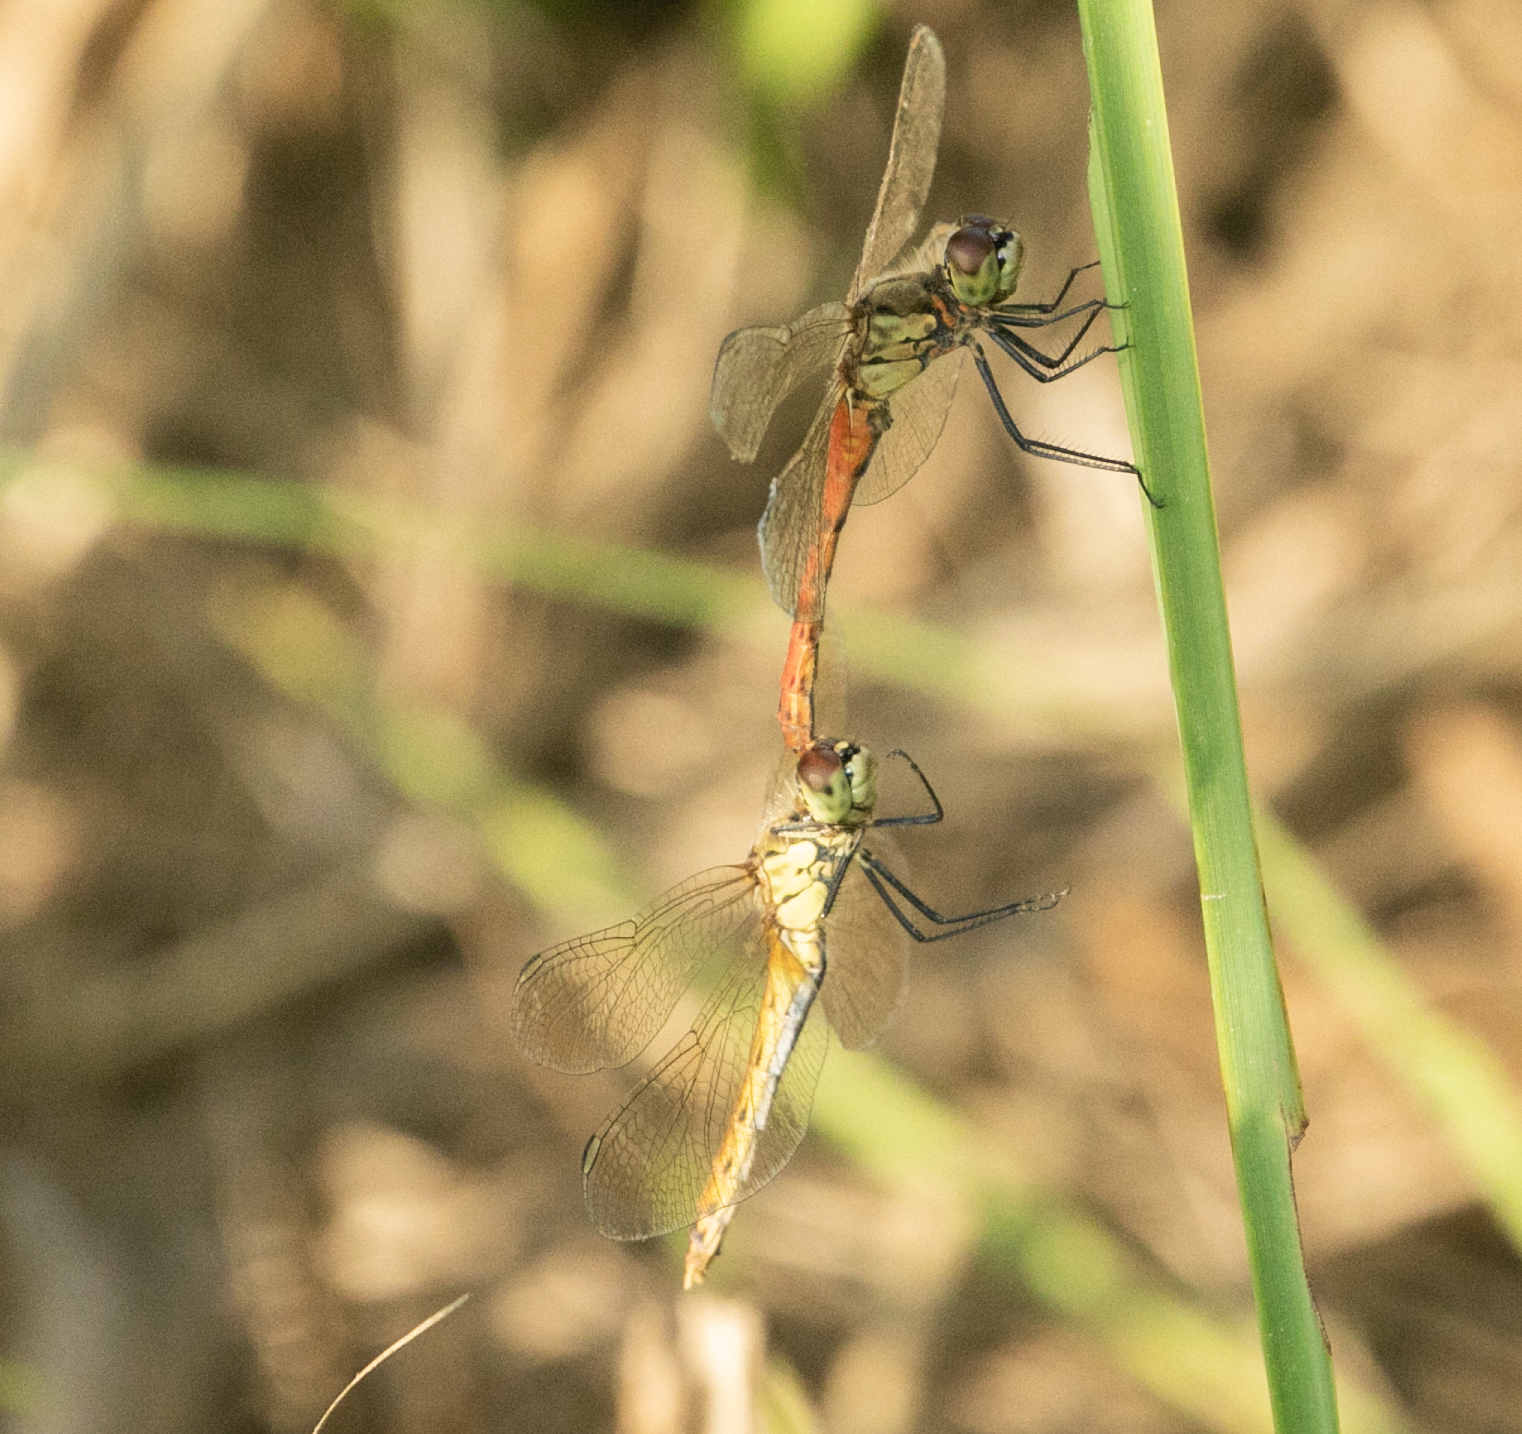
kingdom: Animalia
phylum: Arthropoda
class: Insecta
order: Odonata
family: Libellulidae
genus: Sympetrum
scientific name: Sympetrum depressiusculum
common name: Spotted darter
